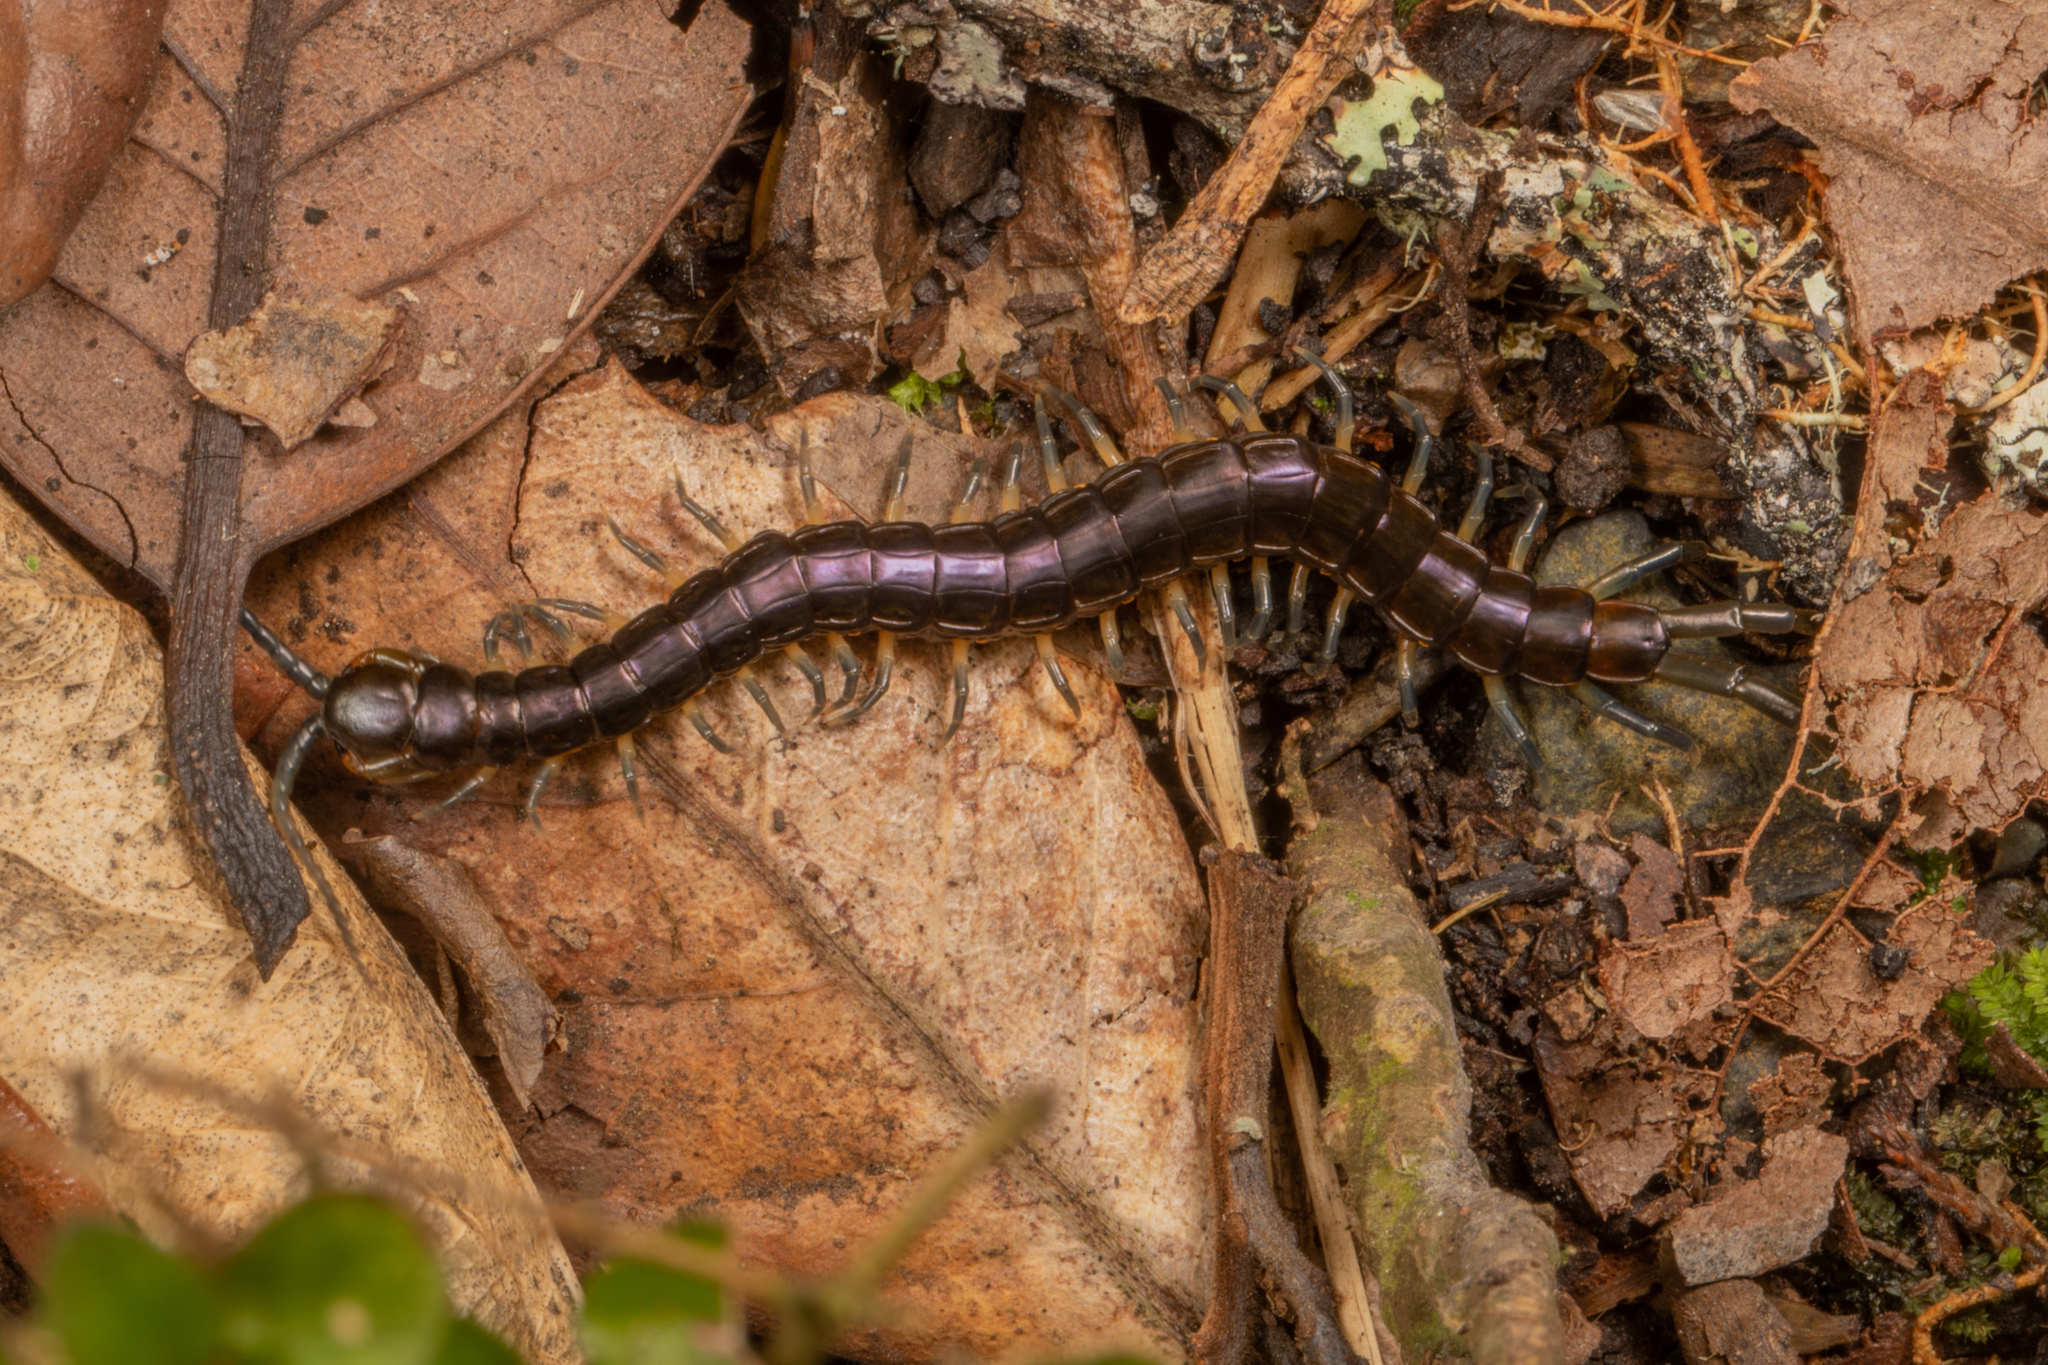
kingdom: Animalia
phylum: Arthropoda
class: Chilopoda
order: Scolopendromorpha
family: Scolopendridae
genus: Cormocephalus
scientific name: Cormocephalus rubriceps
